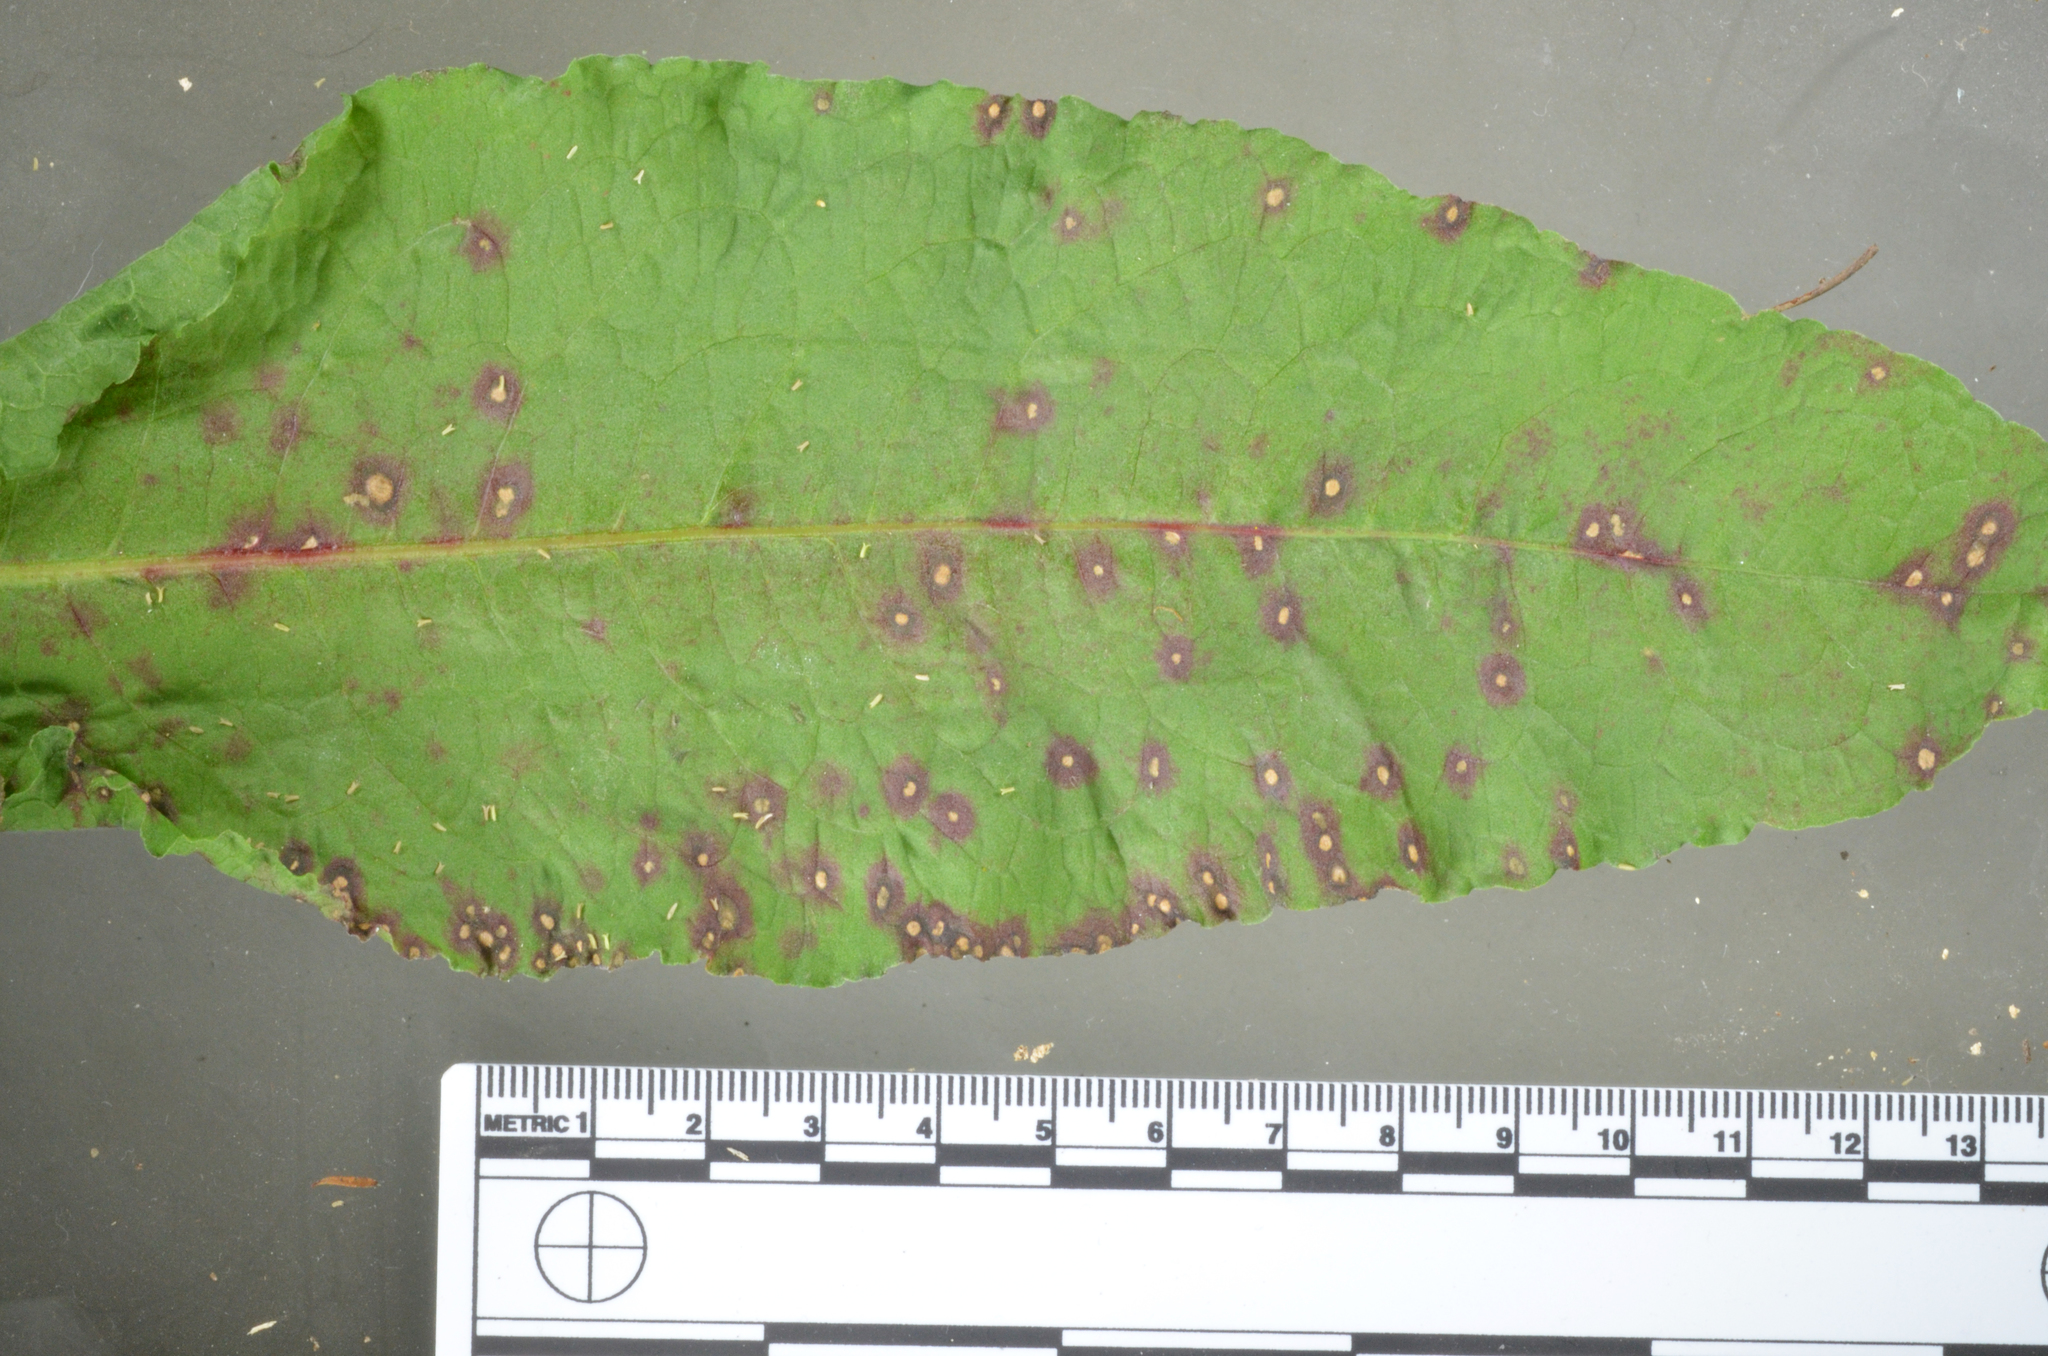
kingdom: Fungi
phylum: Ascomycota
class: Dothideomycetes
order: Mycosphaerellales
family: Mycosphaerellaceae
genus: Ramularia
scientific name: Ramularia rubella
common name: Red dock spot
